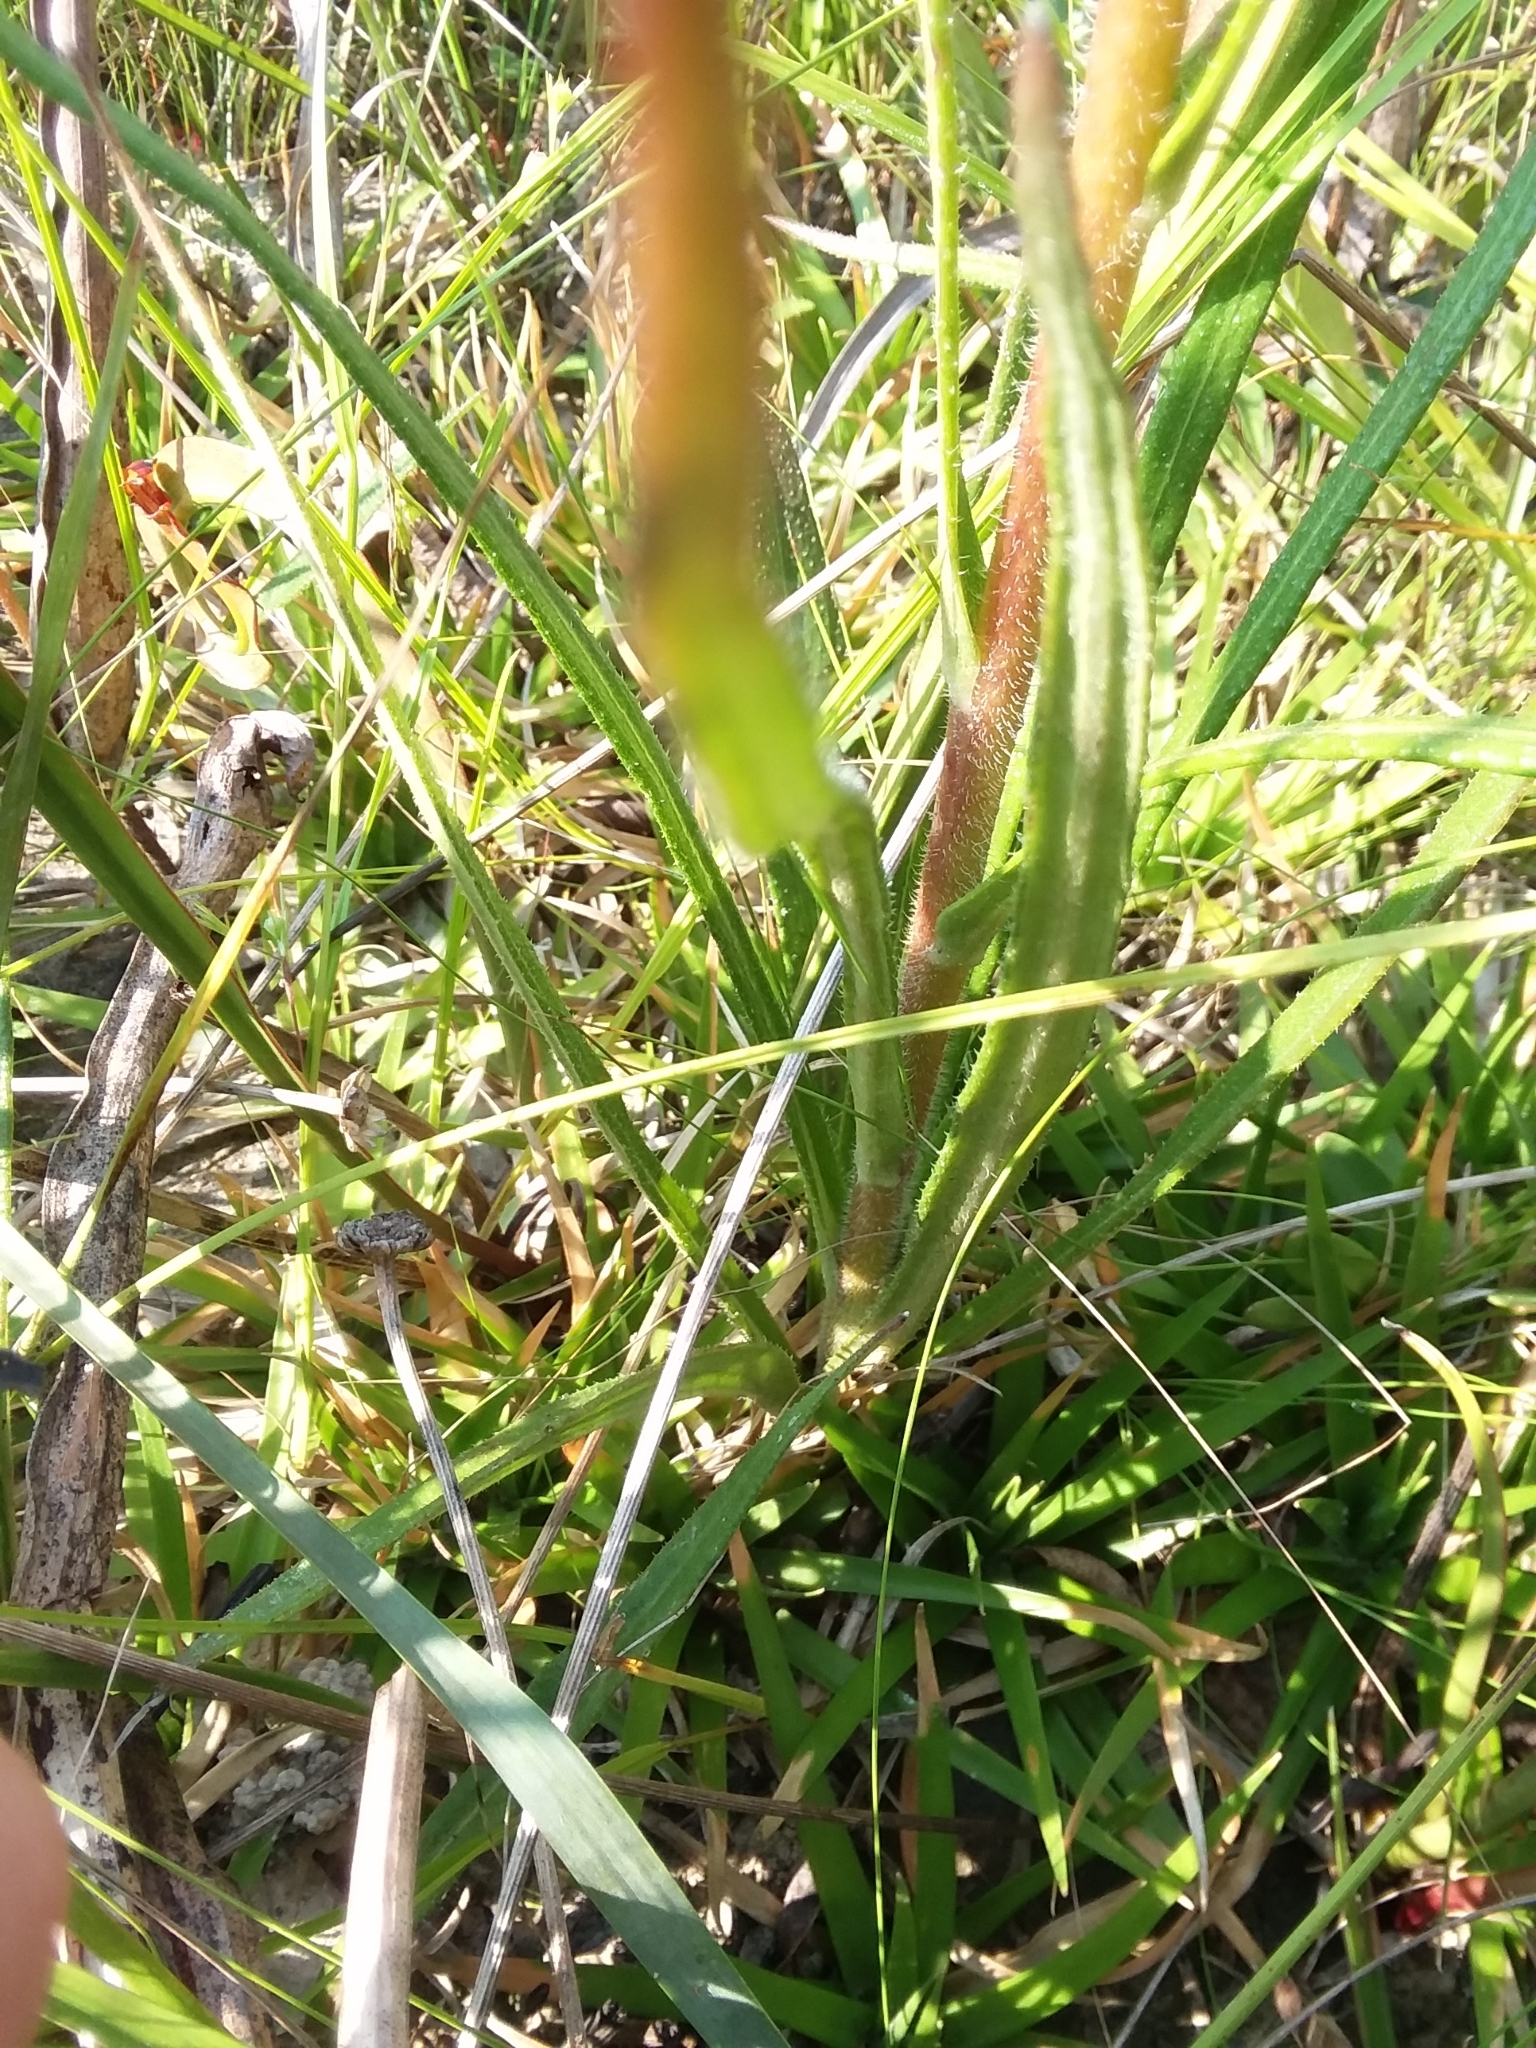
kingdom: Plantae
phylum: Tracheophyta
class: Magnoliopsida
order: Asterales
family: Asteraceae
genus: Helianthus
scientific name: Helianthus heterophyllus
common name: Wetland sunflower
